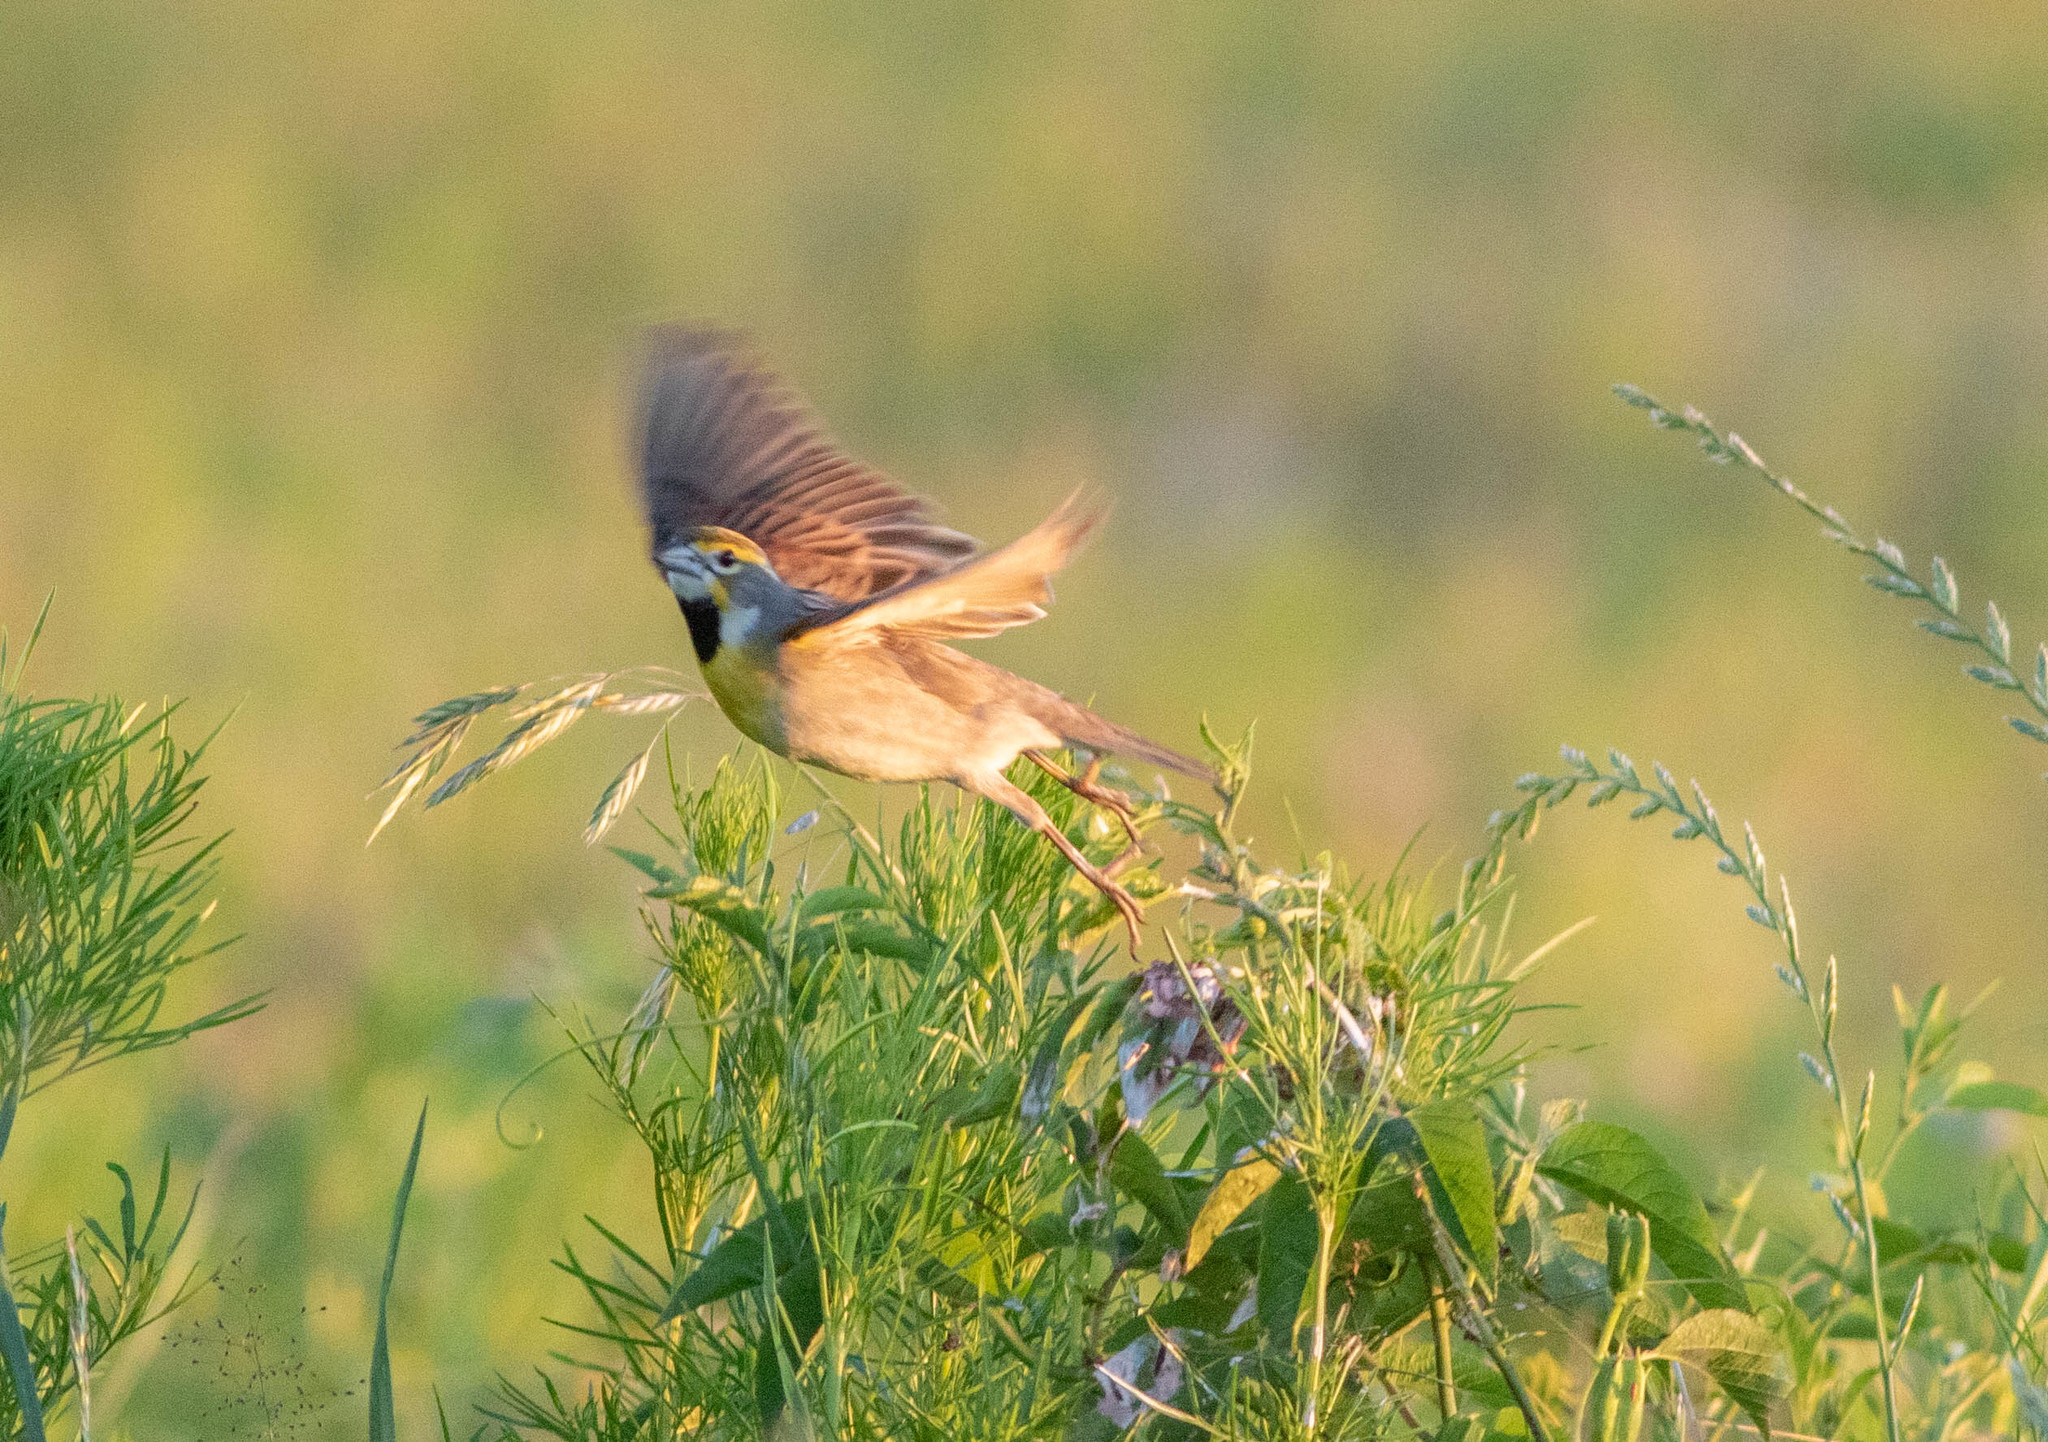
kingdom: Animalia
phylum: Chordata
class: Aves
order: Passeriformes
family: Cardinalidae
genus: Spiza
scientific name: Spiza americana
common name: Dickcissel
